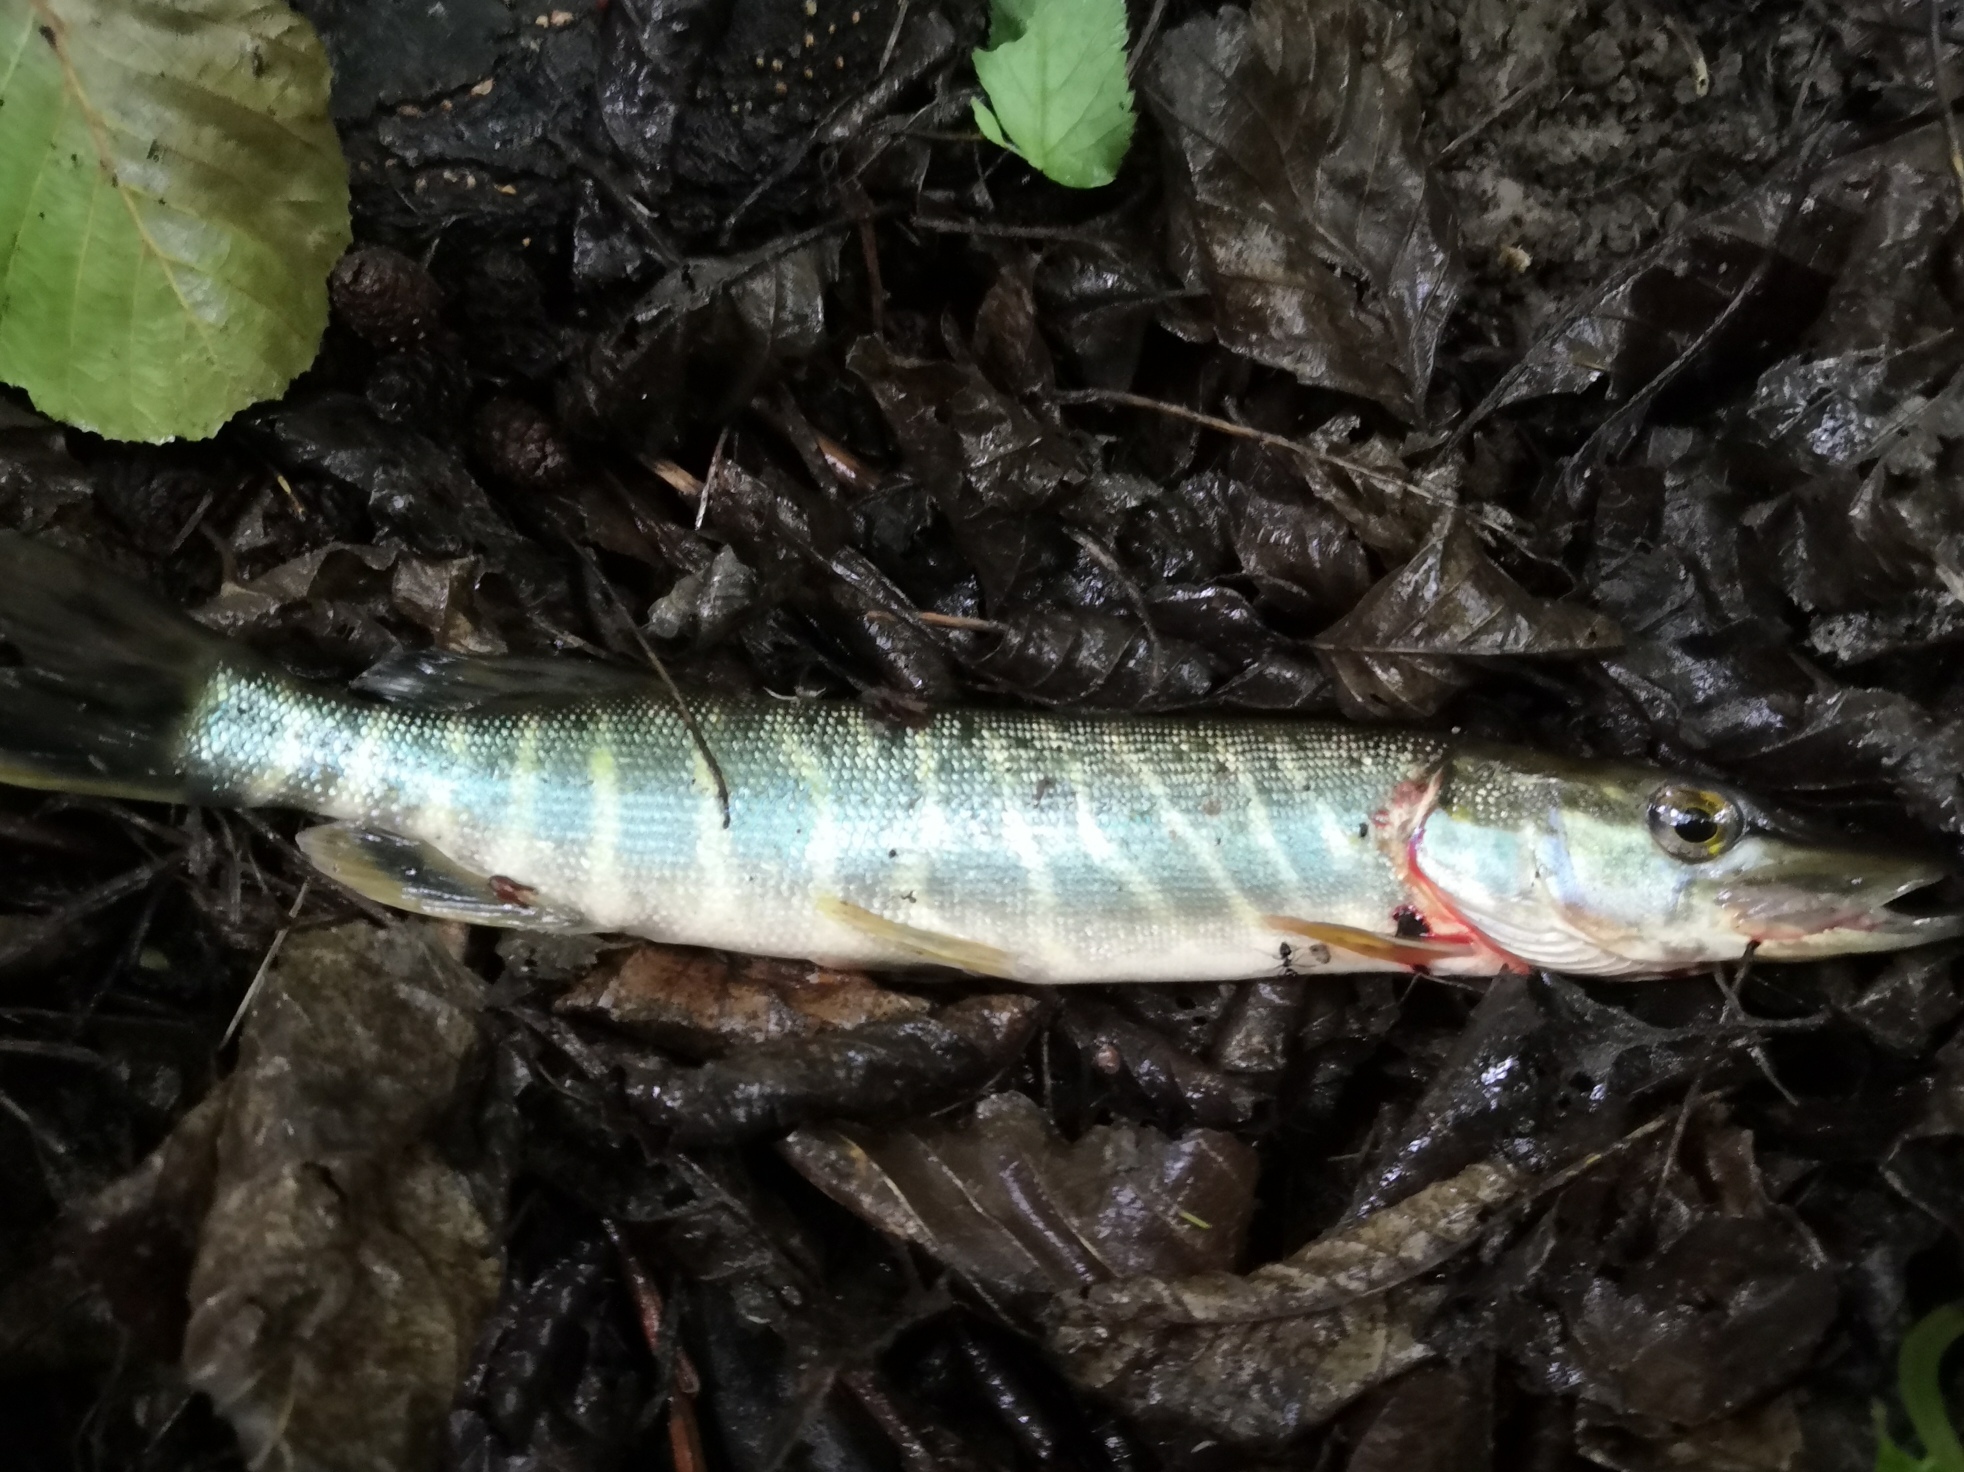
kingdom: Animalia
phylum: Chordata
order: Esociformes
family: Esocidae
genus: Esox
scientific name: Esox lucius
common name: Northern pike
